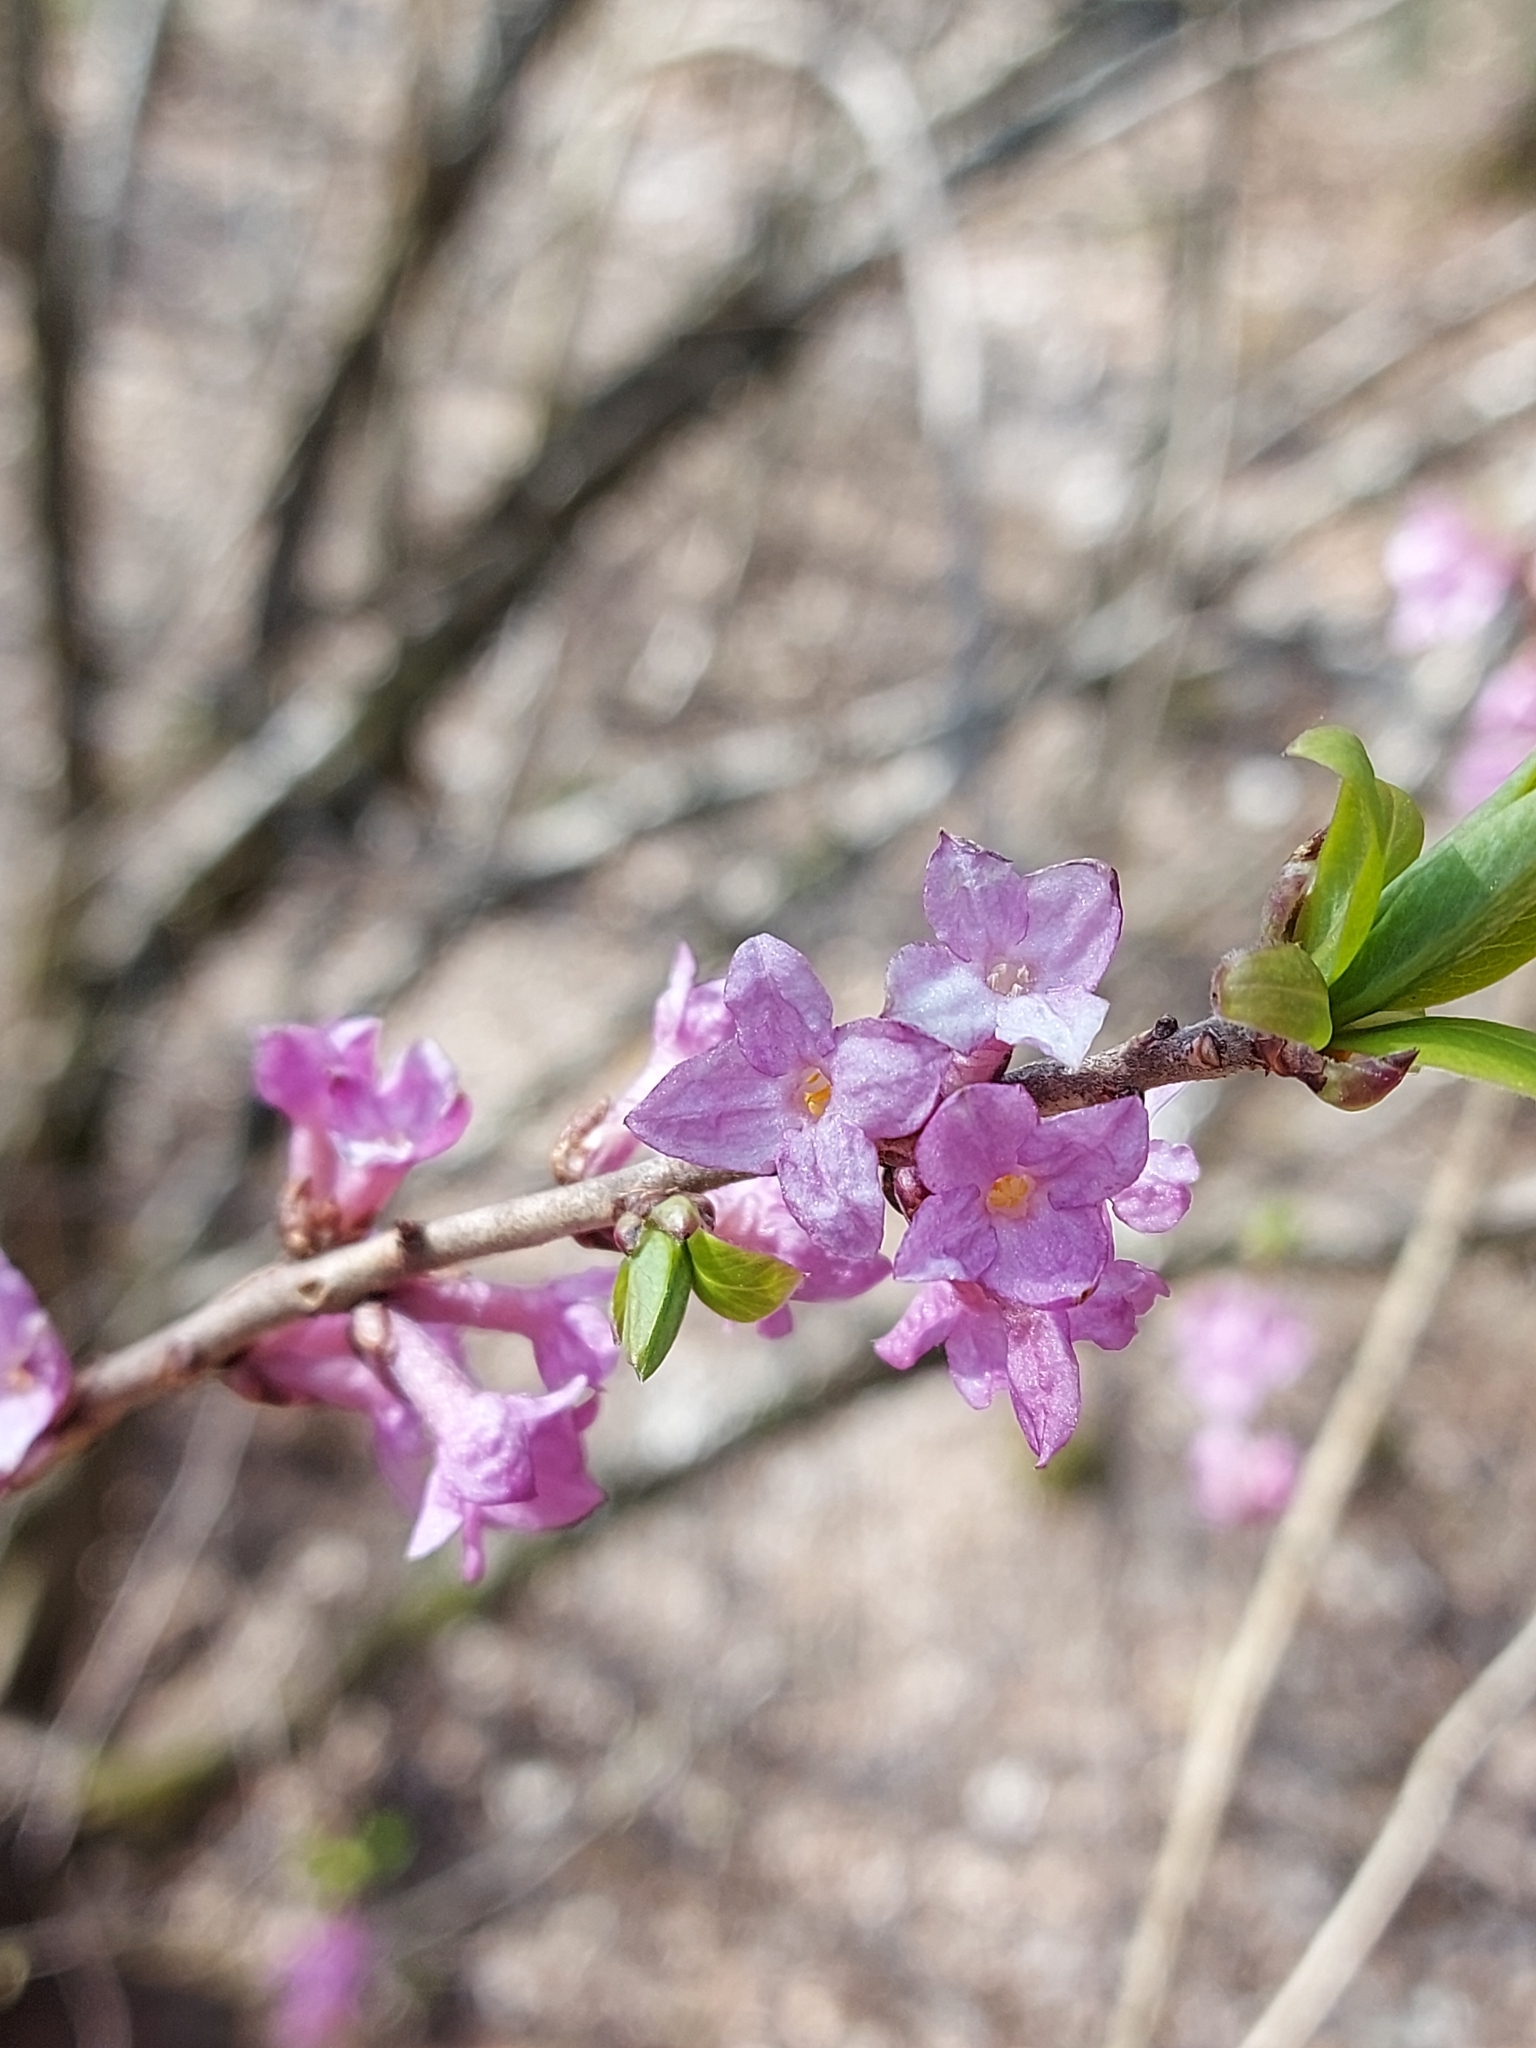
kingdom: Plantae
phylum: Tracheophyta
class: Magnoliopsida
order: Malvales
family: Thymelaeaceae
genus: Daphne
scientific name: Daphne mezereum
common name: Mezereon
